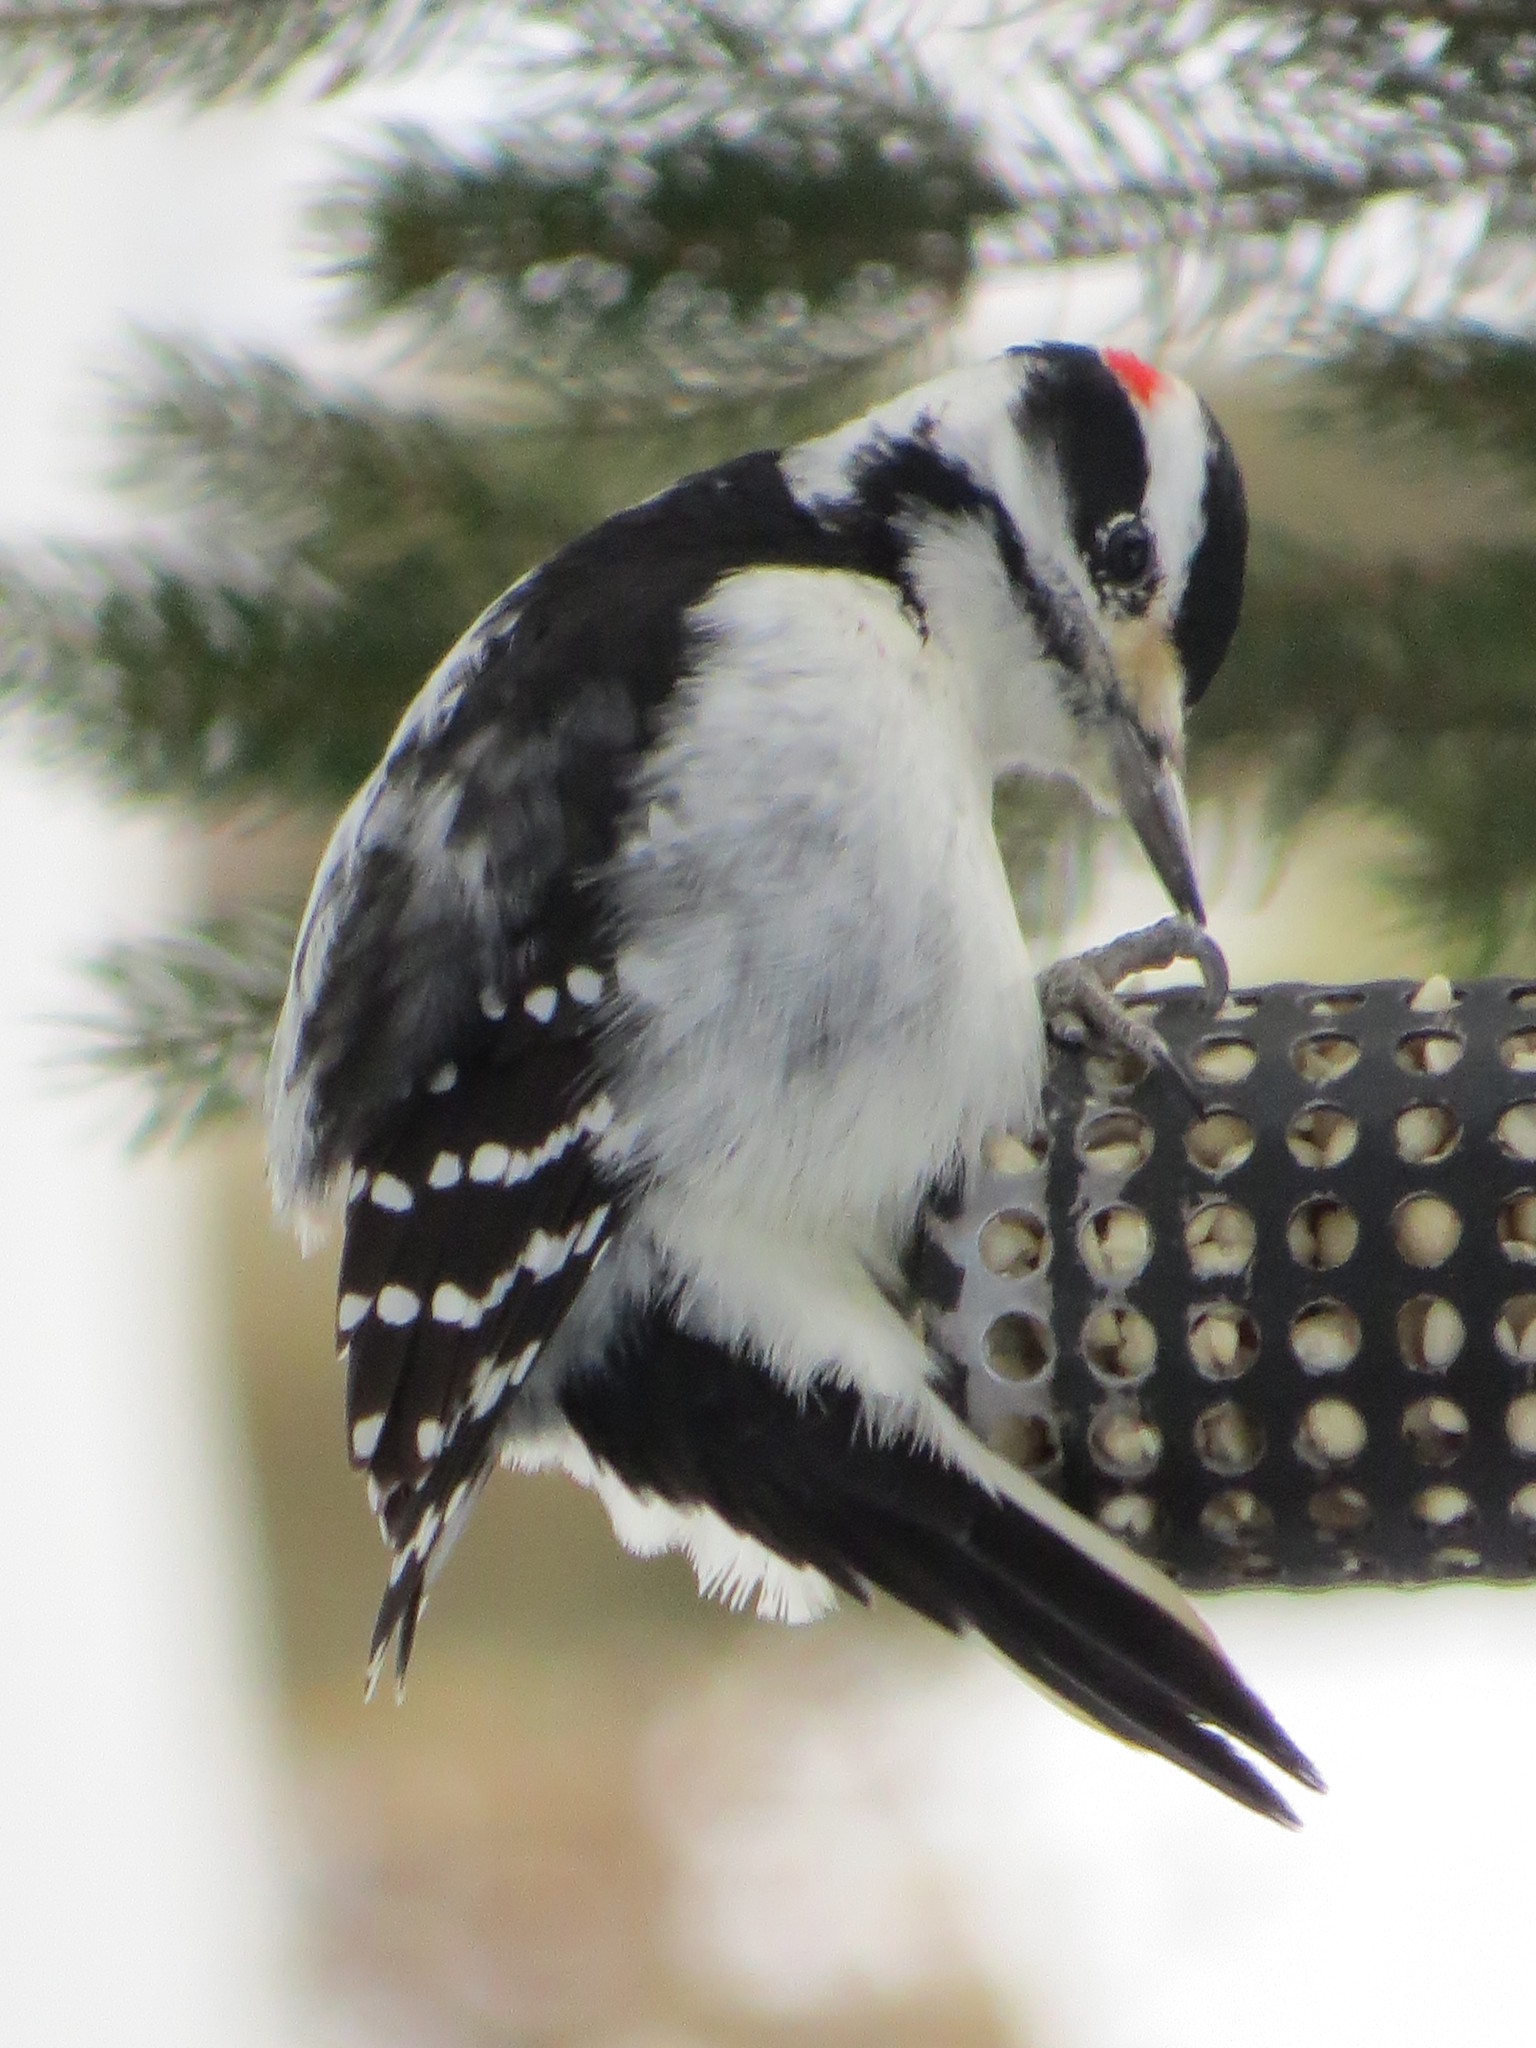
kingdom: Animalia
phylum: Chordata
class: Aves
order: Piciformes
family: Picidae
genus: Leuconotopicus
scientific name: Leuconotopicus villosus
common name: Hairy woodpecker
